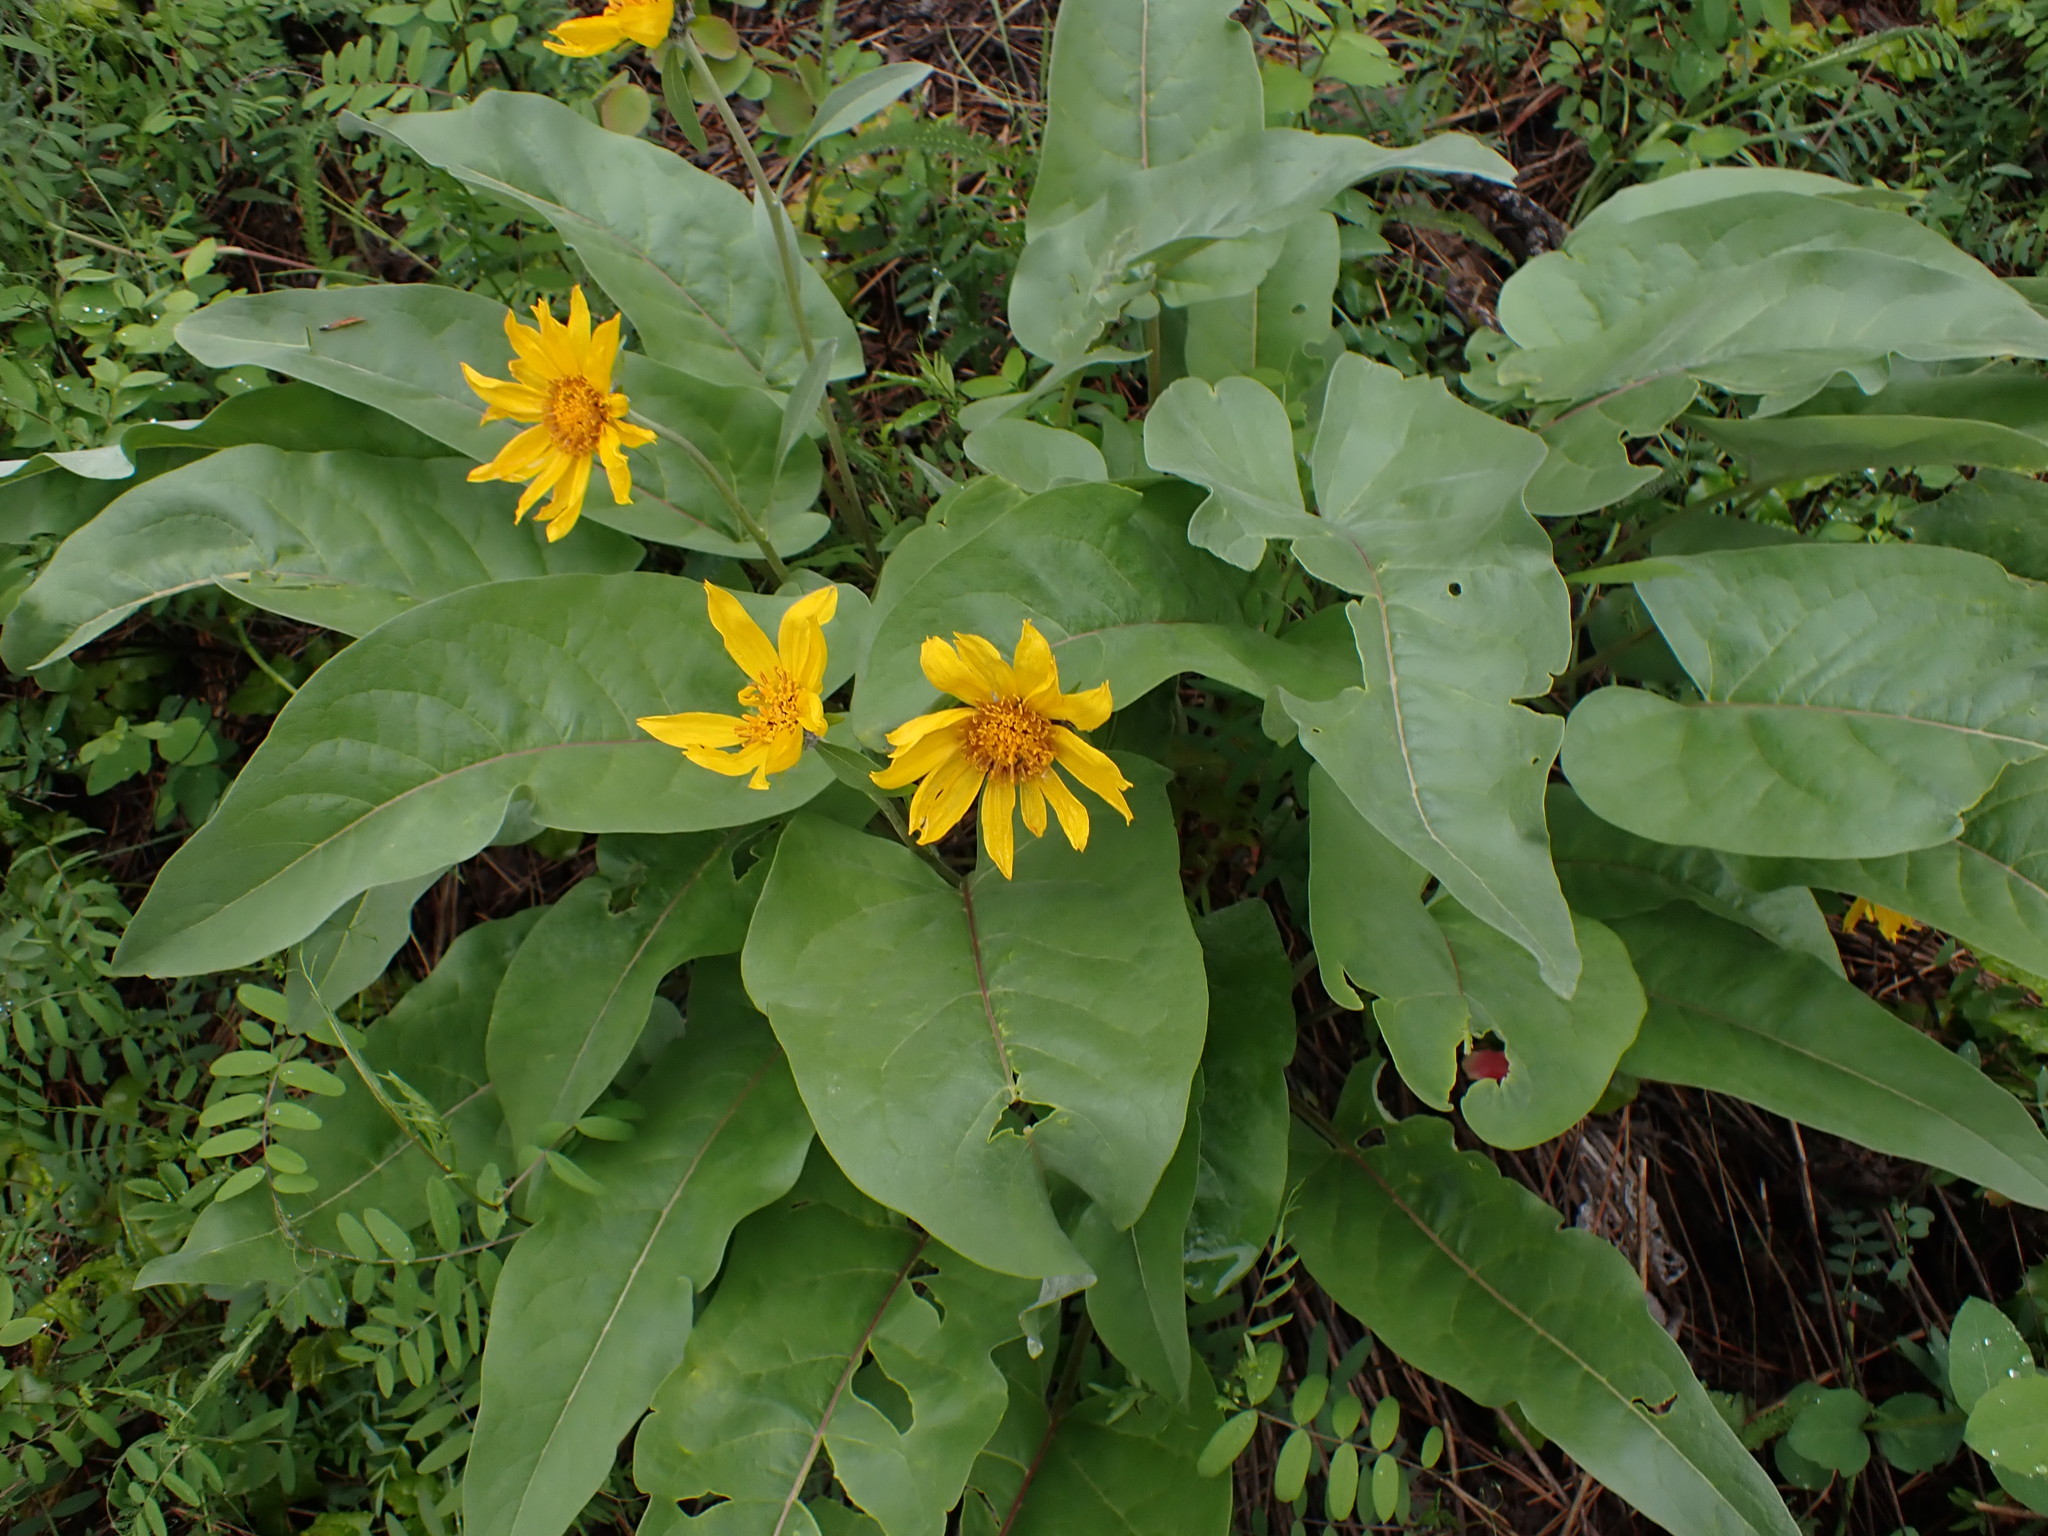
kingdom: Plantae
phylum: Tracheophyta
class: Magnoliopsida
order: Asterales
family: Asteraceae
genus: Wyethia
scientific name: Wyethia sagittata
